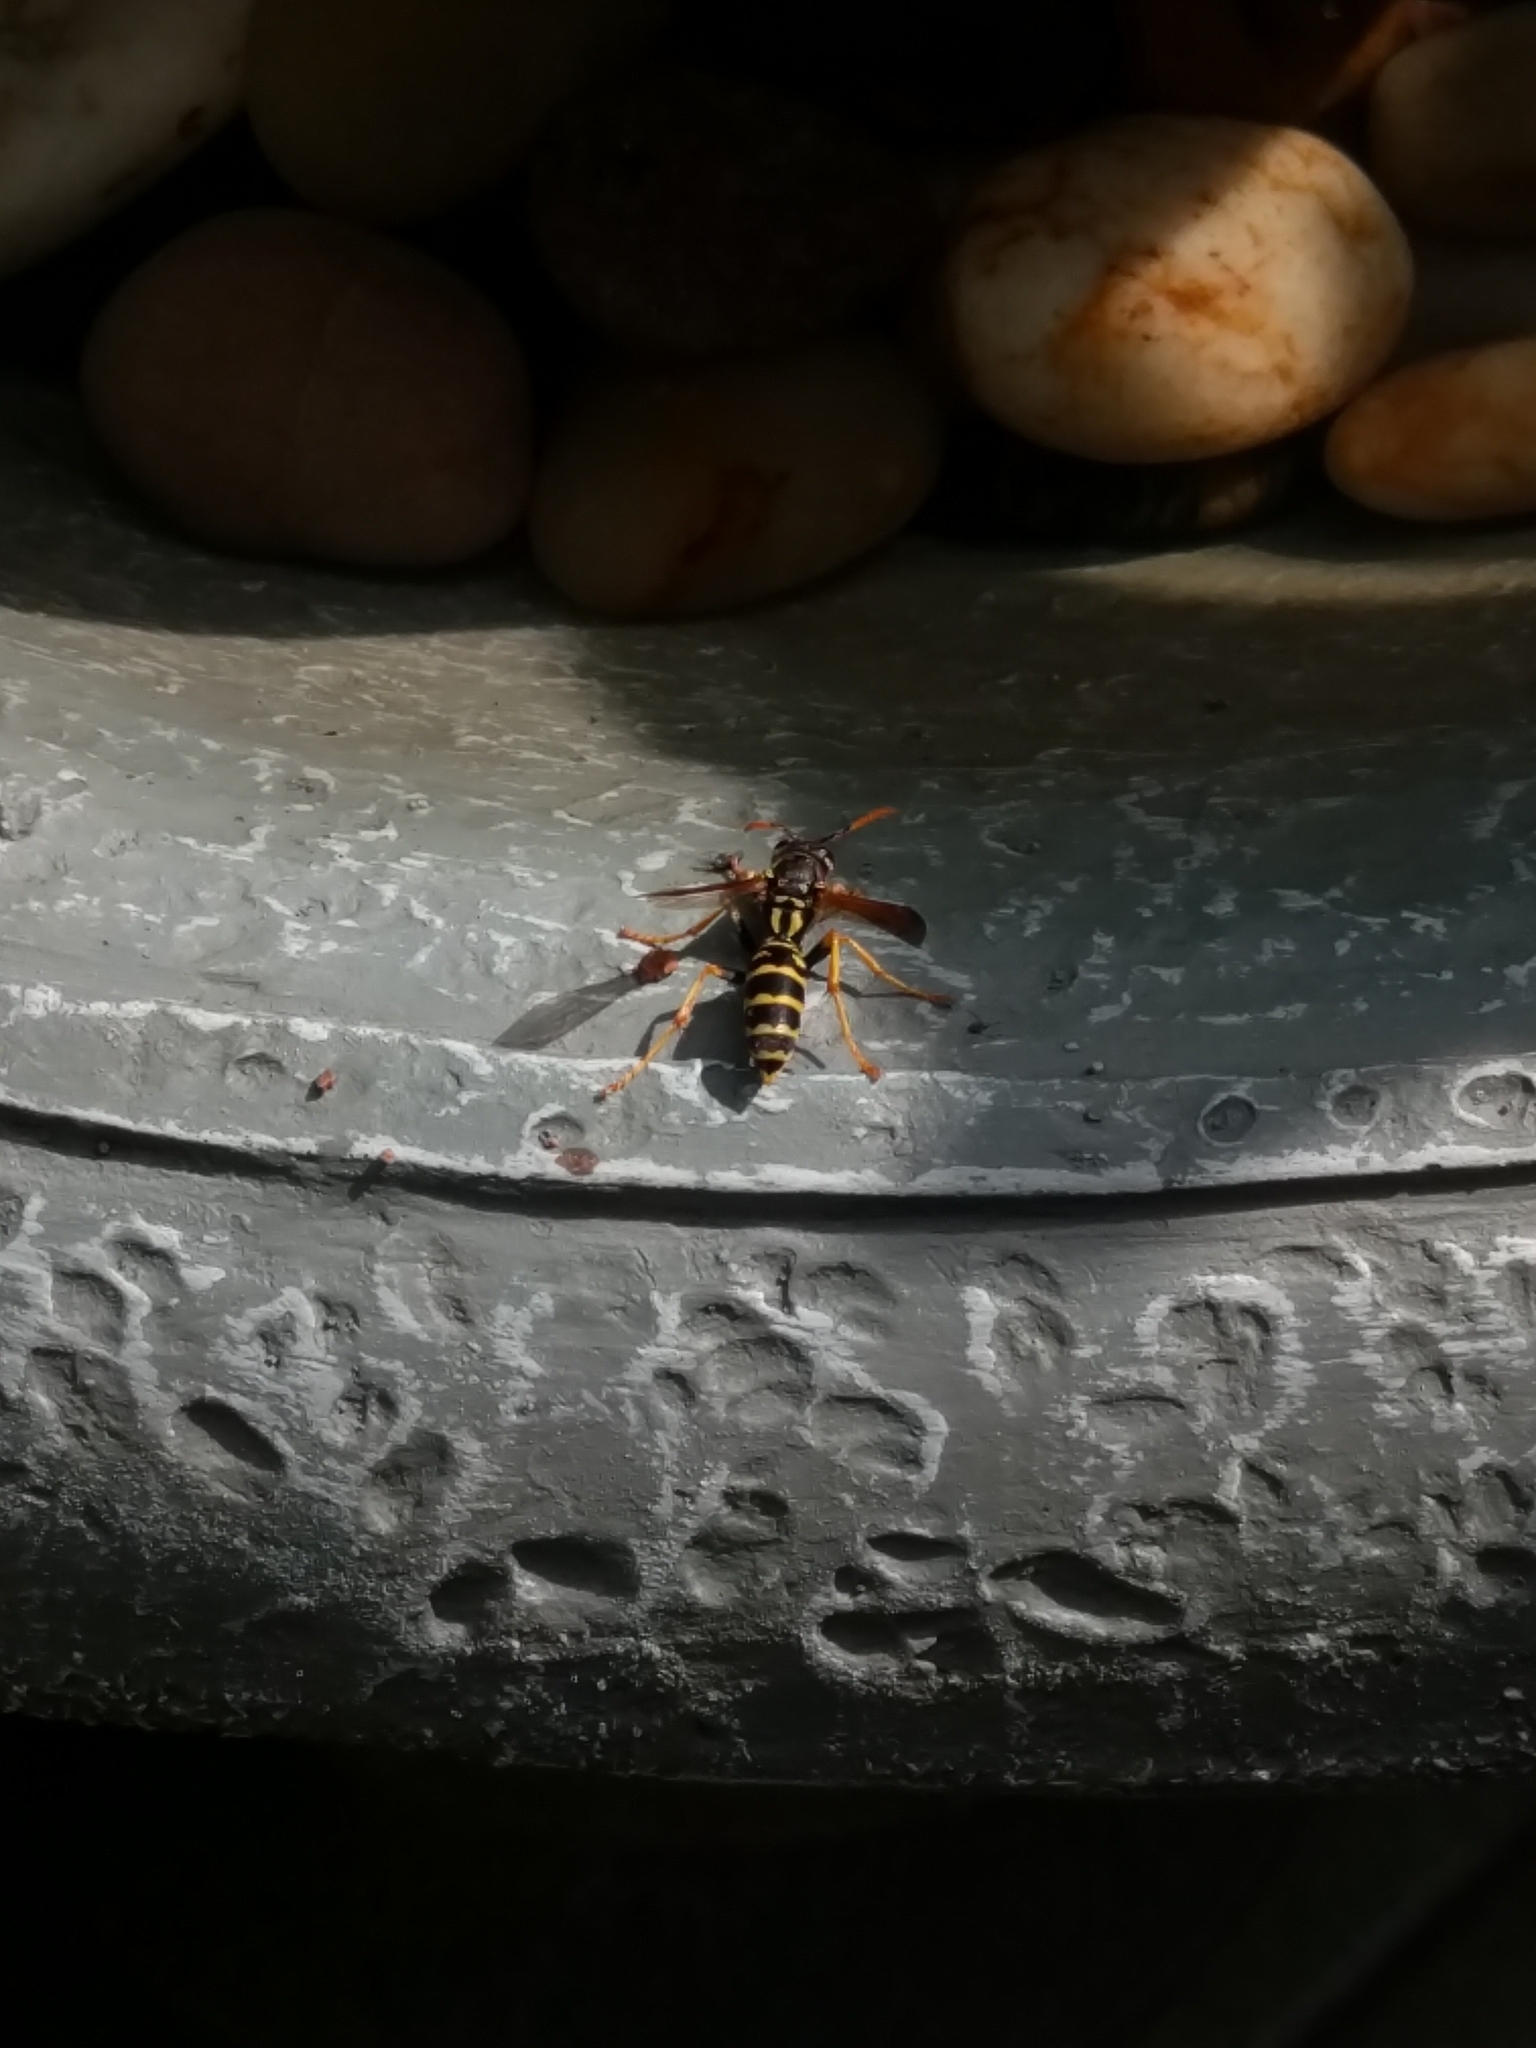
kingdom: Animalia
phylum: Arthropoda
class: Insecta
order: Hymenoptera
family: Eumenidae
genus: Polistes
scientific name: Polistes dominula
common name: Paper wasp
